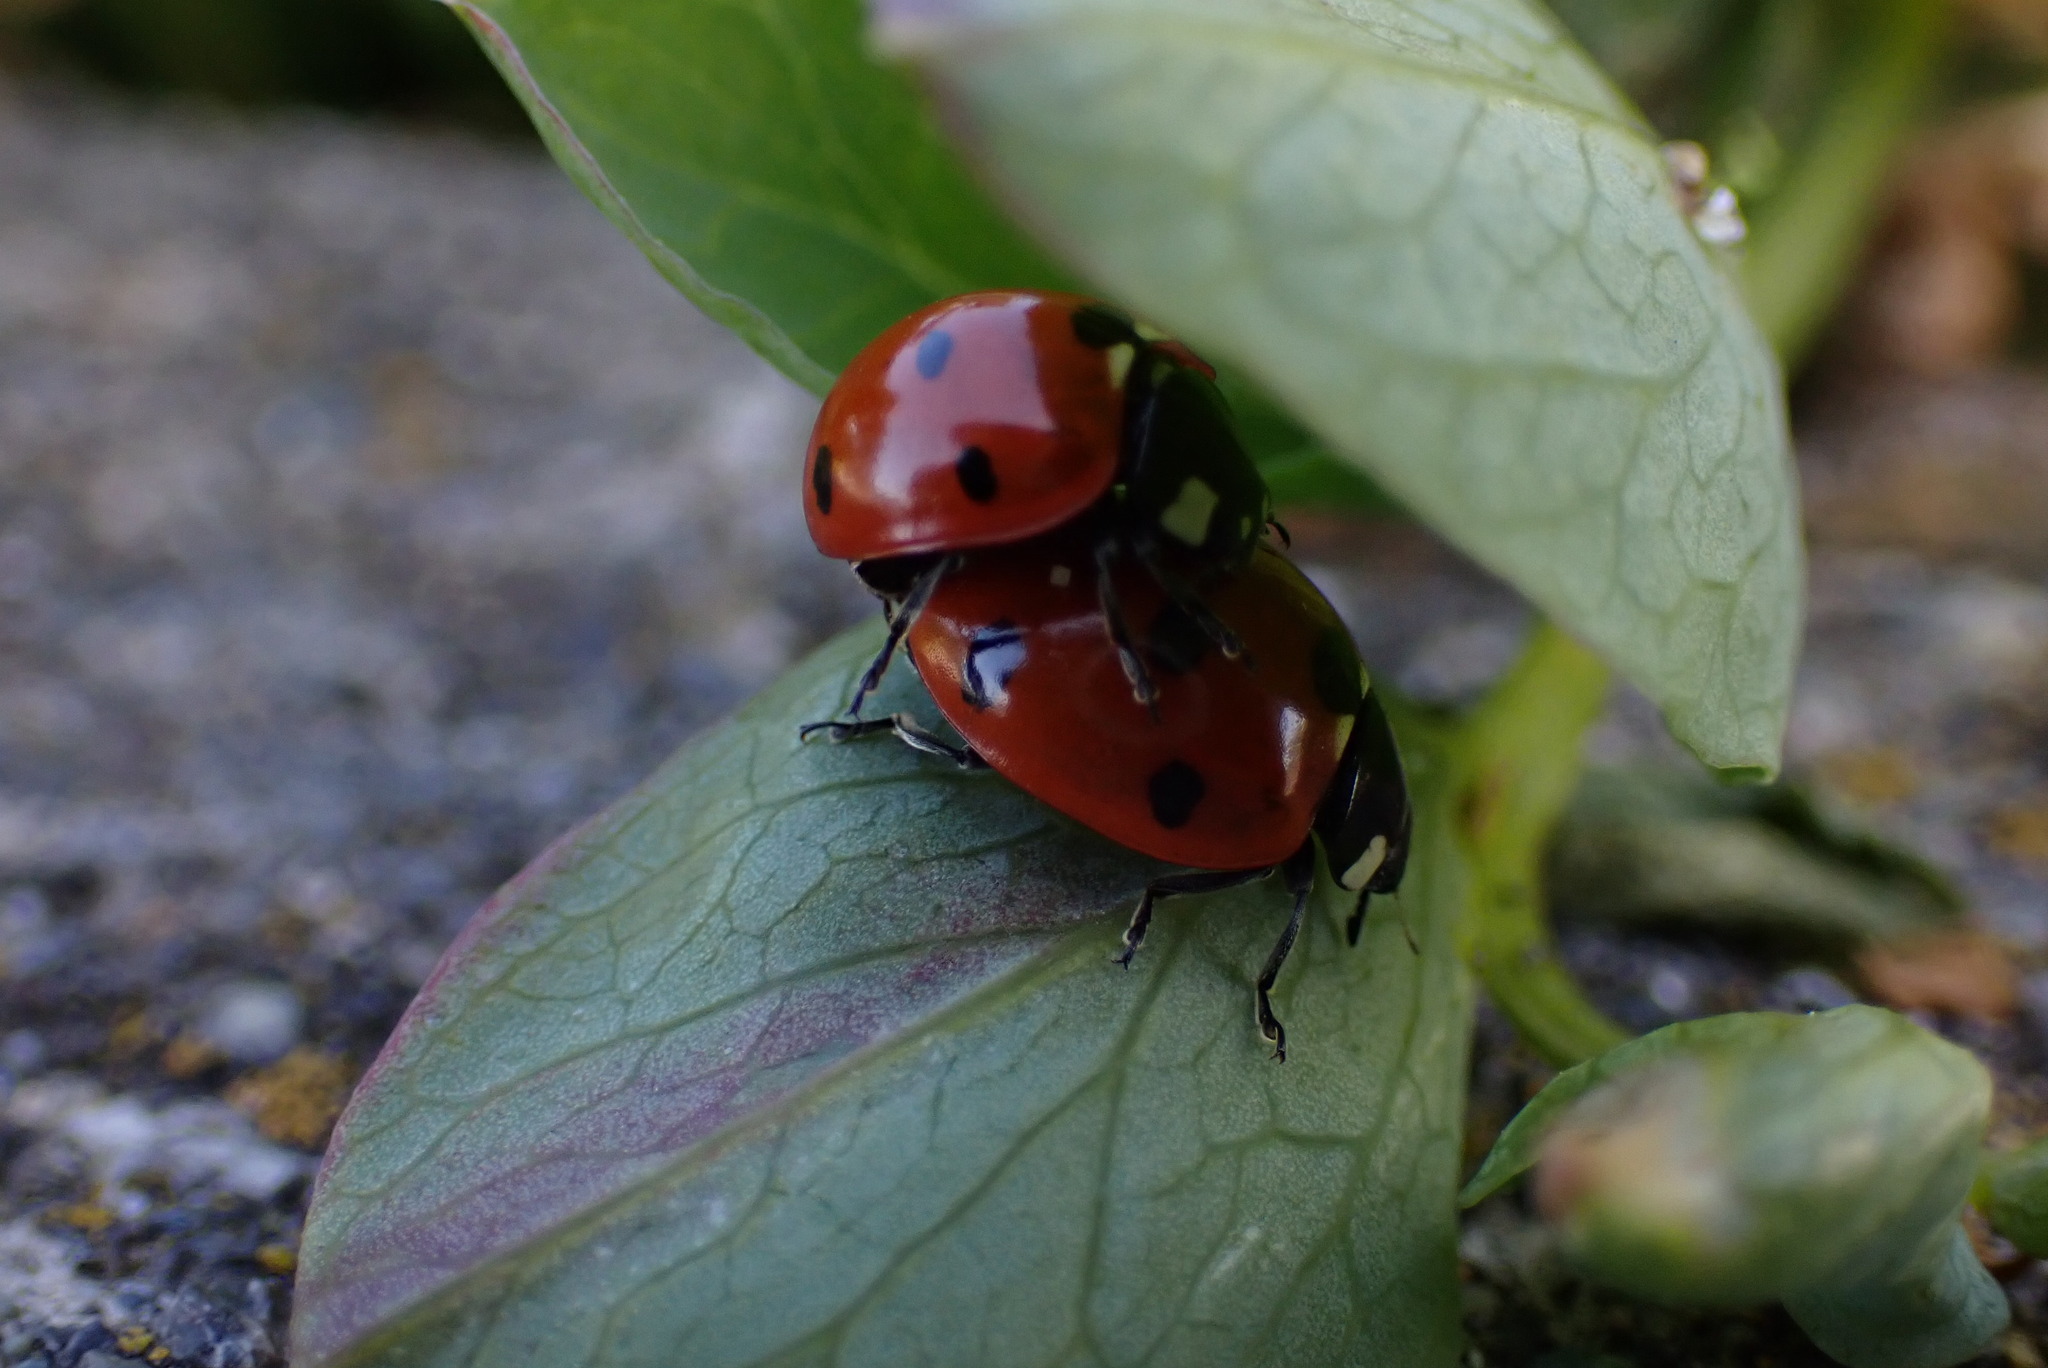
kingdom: Animalia
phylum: Arthropoda
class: Insecta
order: Coleoptera
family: Coccinellidae
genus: Coccinella
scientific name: Coccinella septempunctata
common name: Sevenspotted lady beetle
